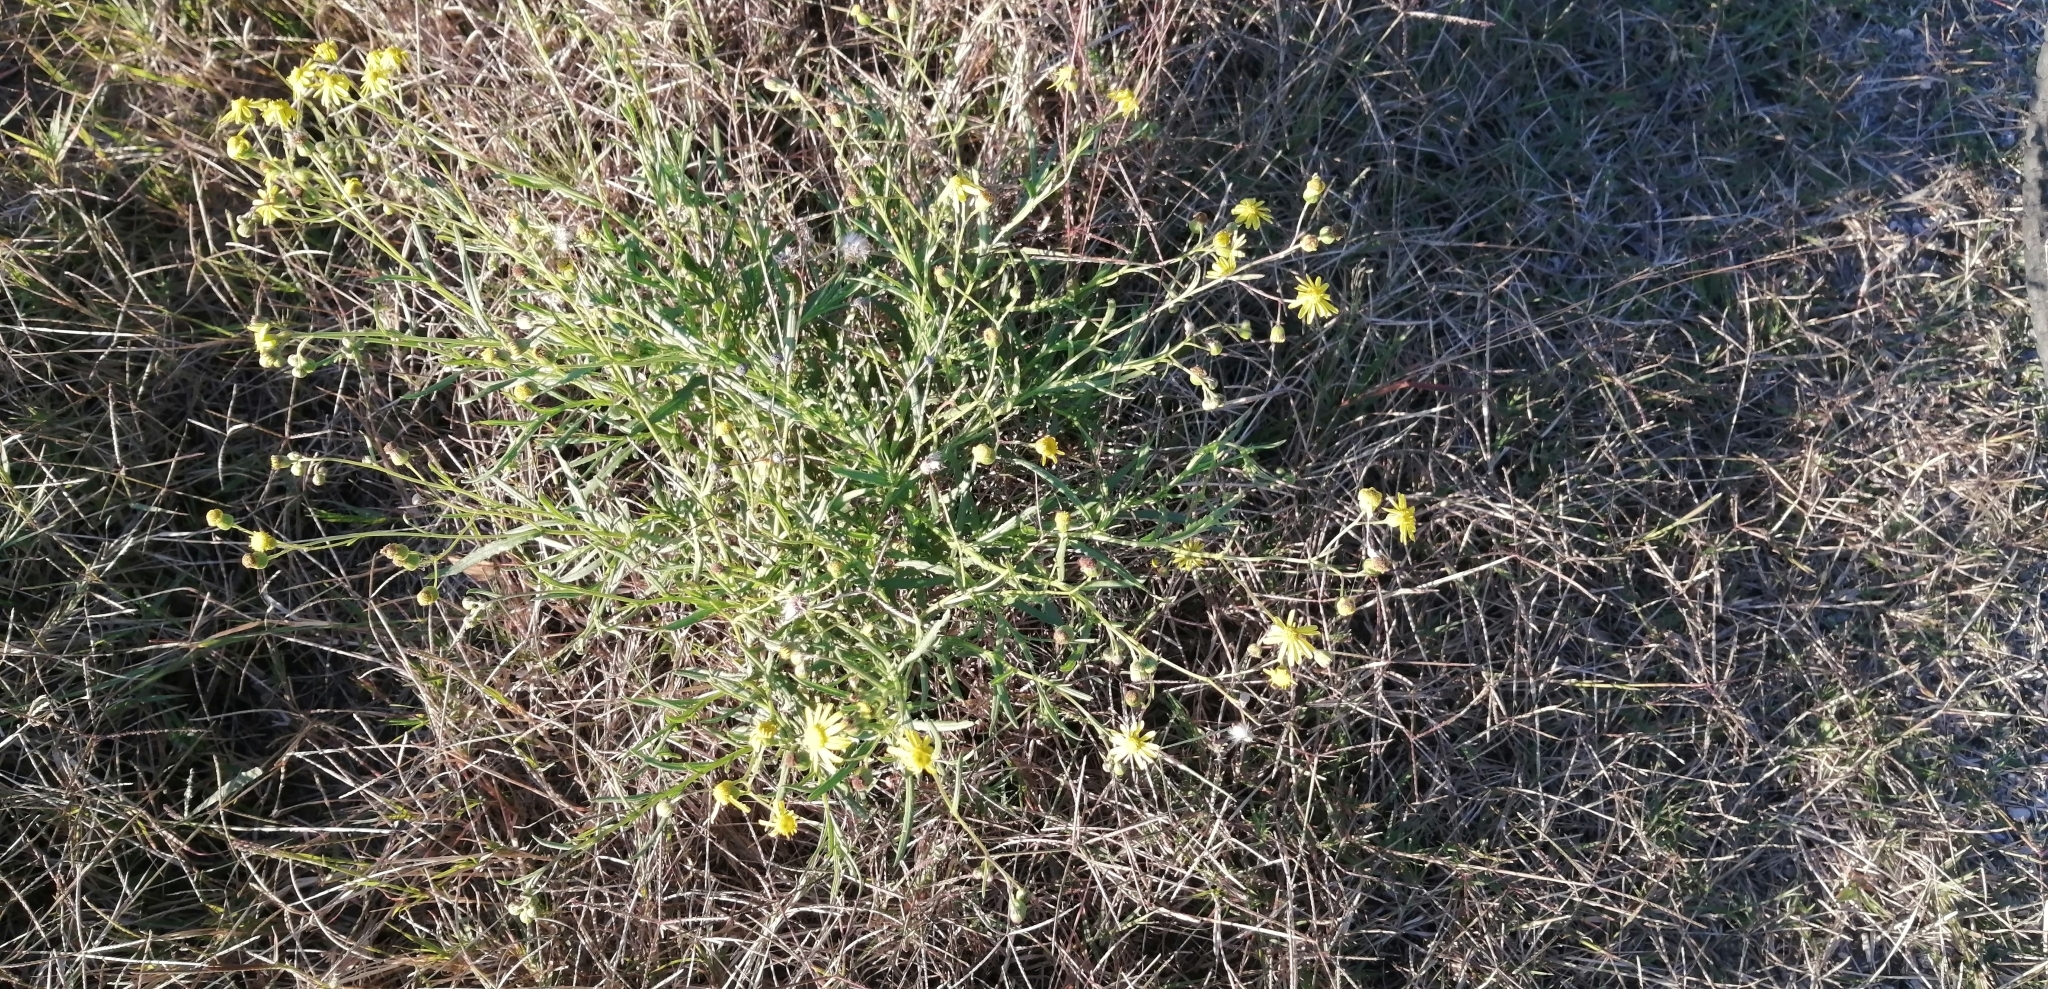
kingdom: Plantae
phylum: Tracheophyta
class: Magnoliopsida
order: Asterales
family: Asteraceae
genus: Senecio
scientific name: Senecio madagascariensis
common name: Madagascar ragwort
